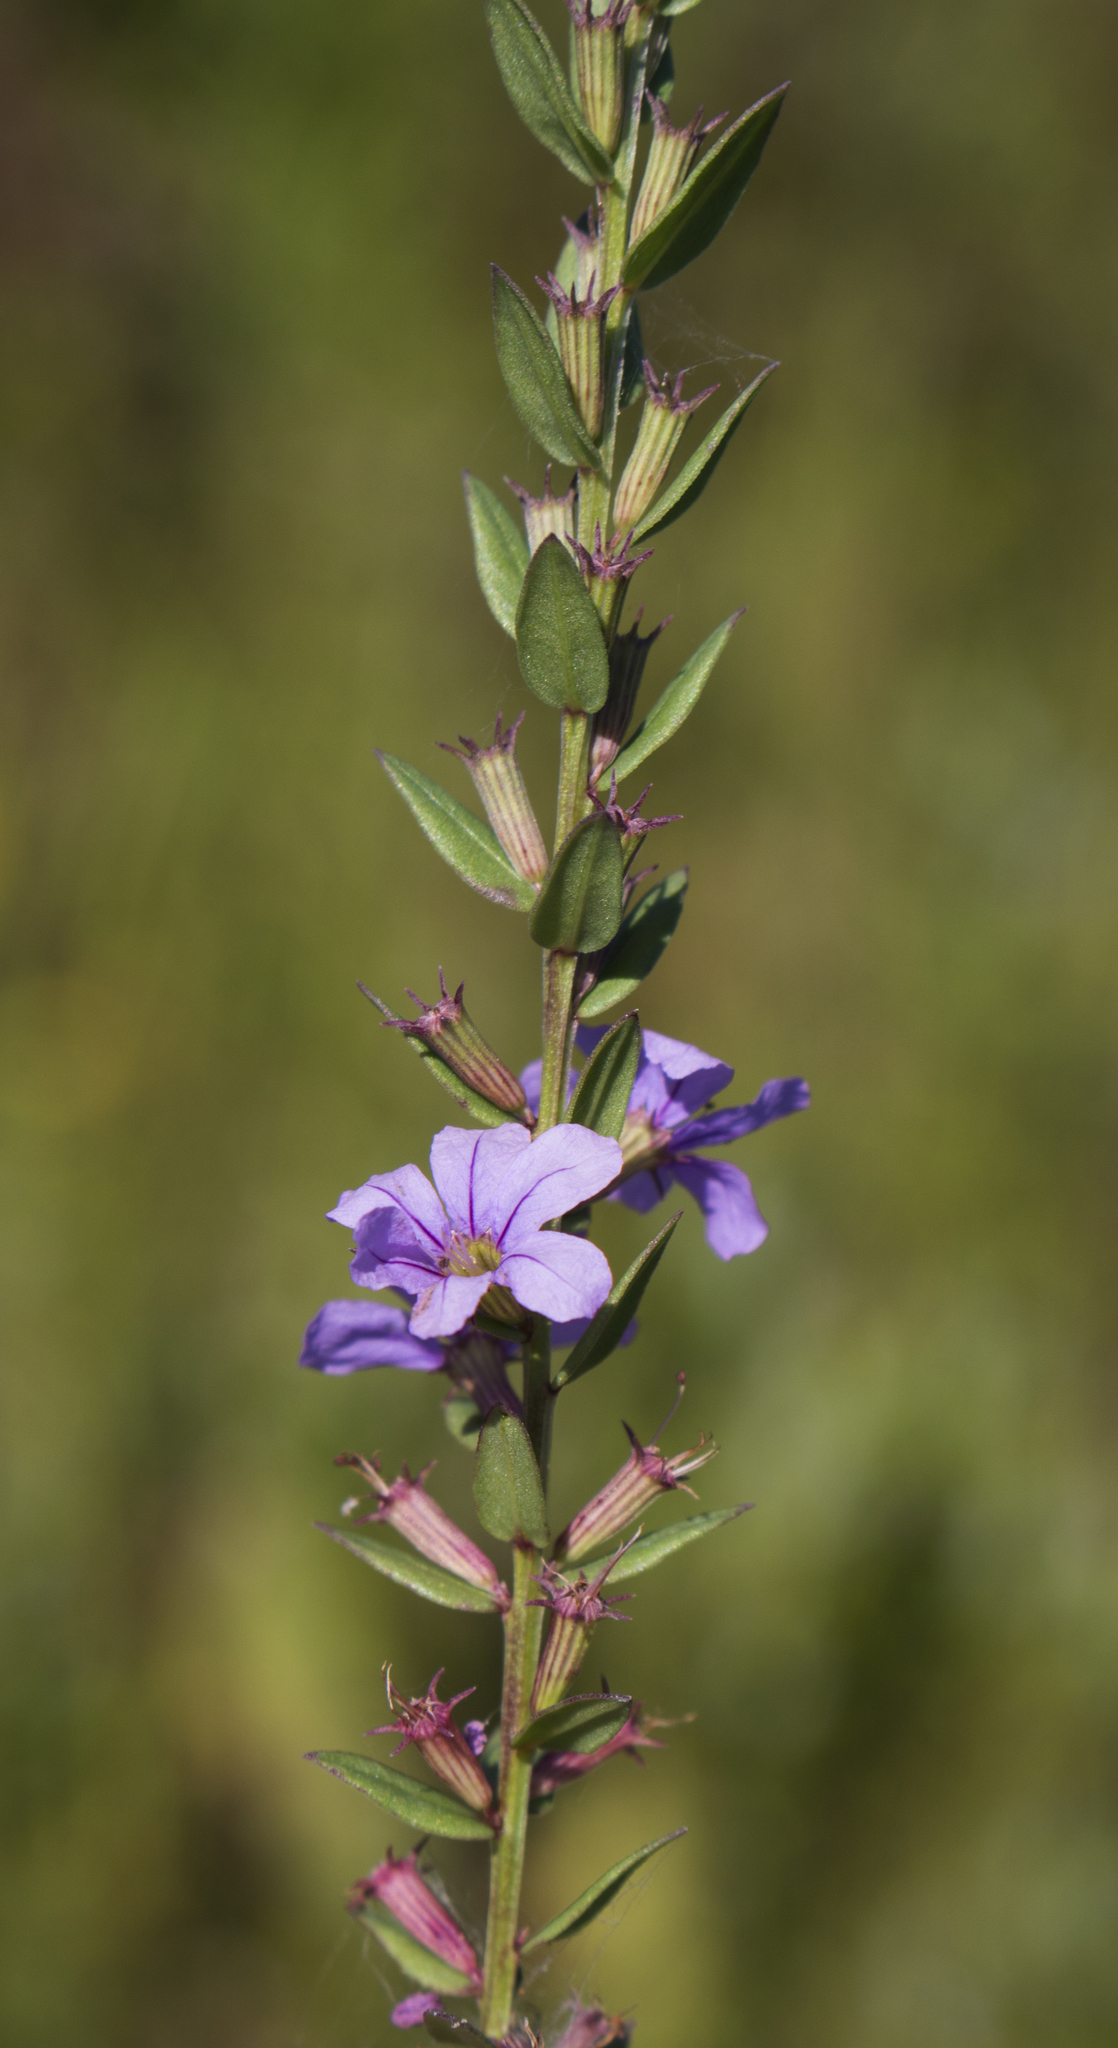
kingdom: Plantae
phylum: Tracheophyta
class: Magnoliopsida
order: Myrtales
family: Lythraceae
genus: Lythrum
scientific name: Lythrum alatum
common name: Winged loosestrife
